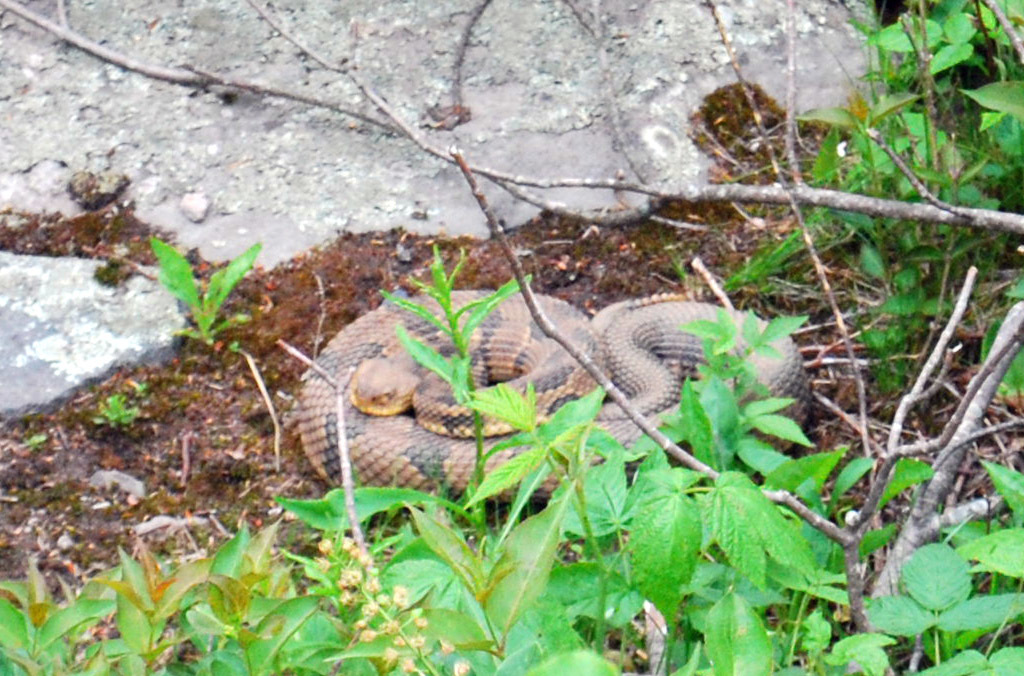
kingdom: Animalia
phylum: Chordata
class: Squamata
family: Viperidae
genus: Crotalus
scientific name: Crotalus horridus
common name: Timber rattlesnake
